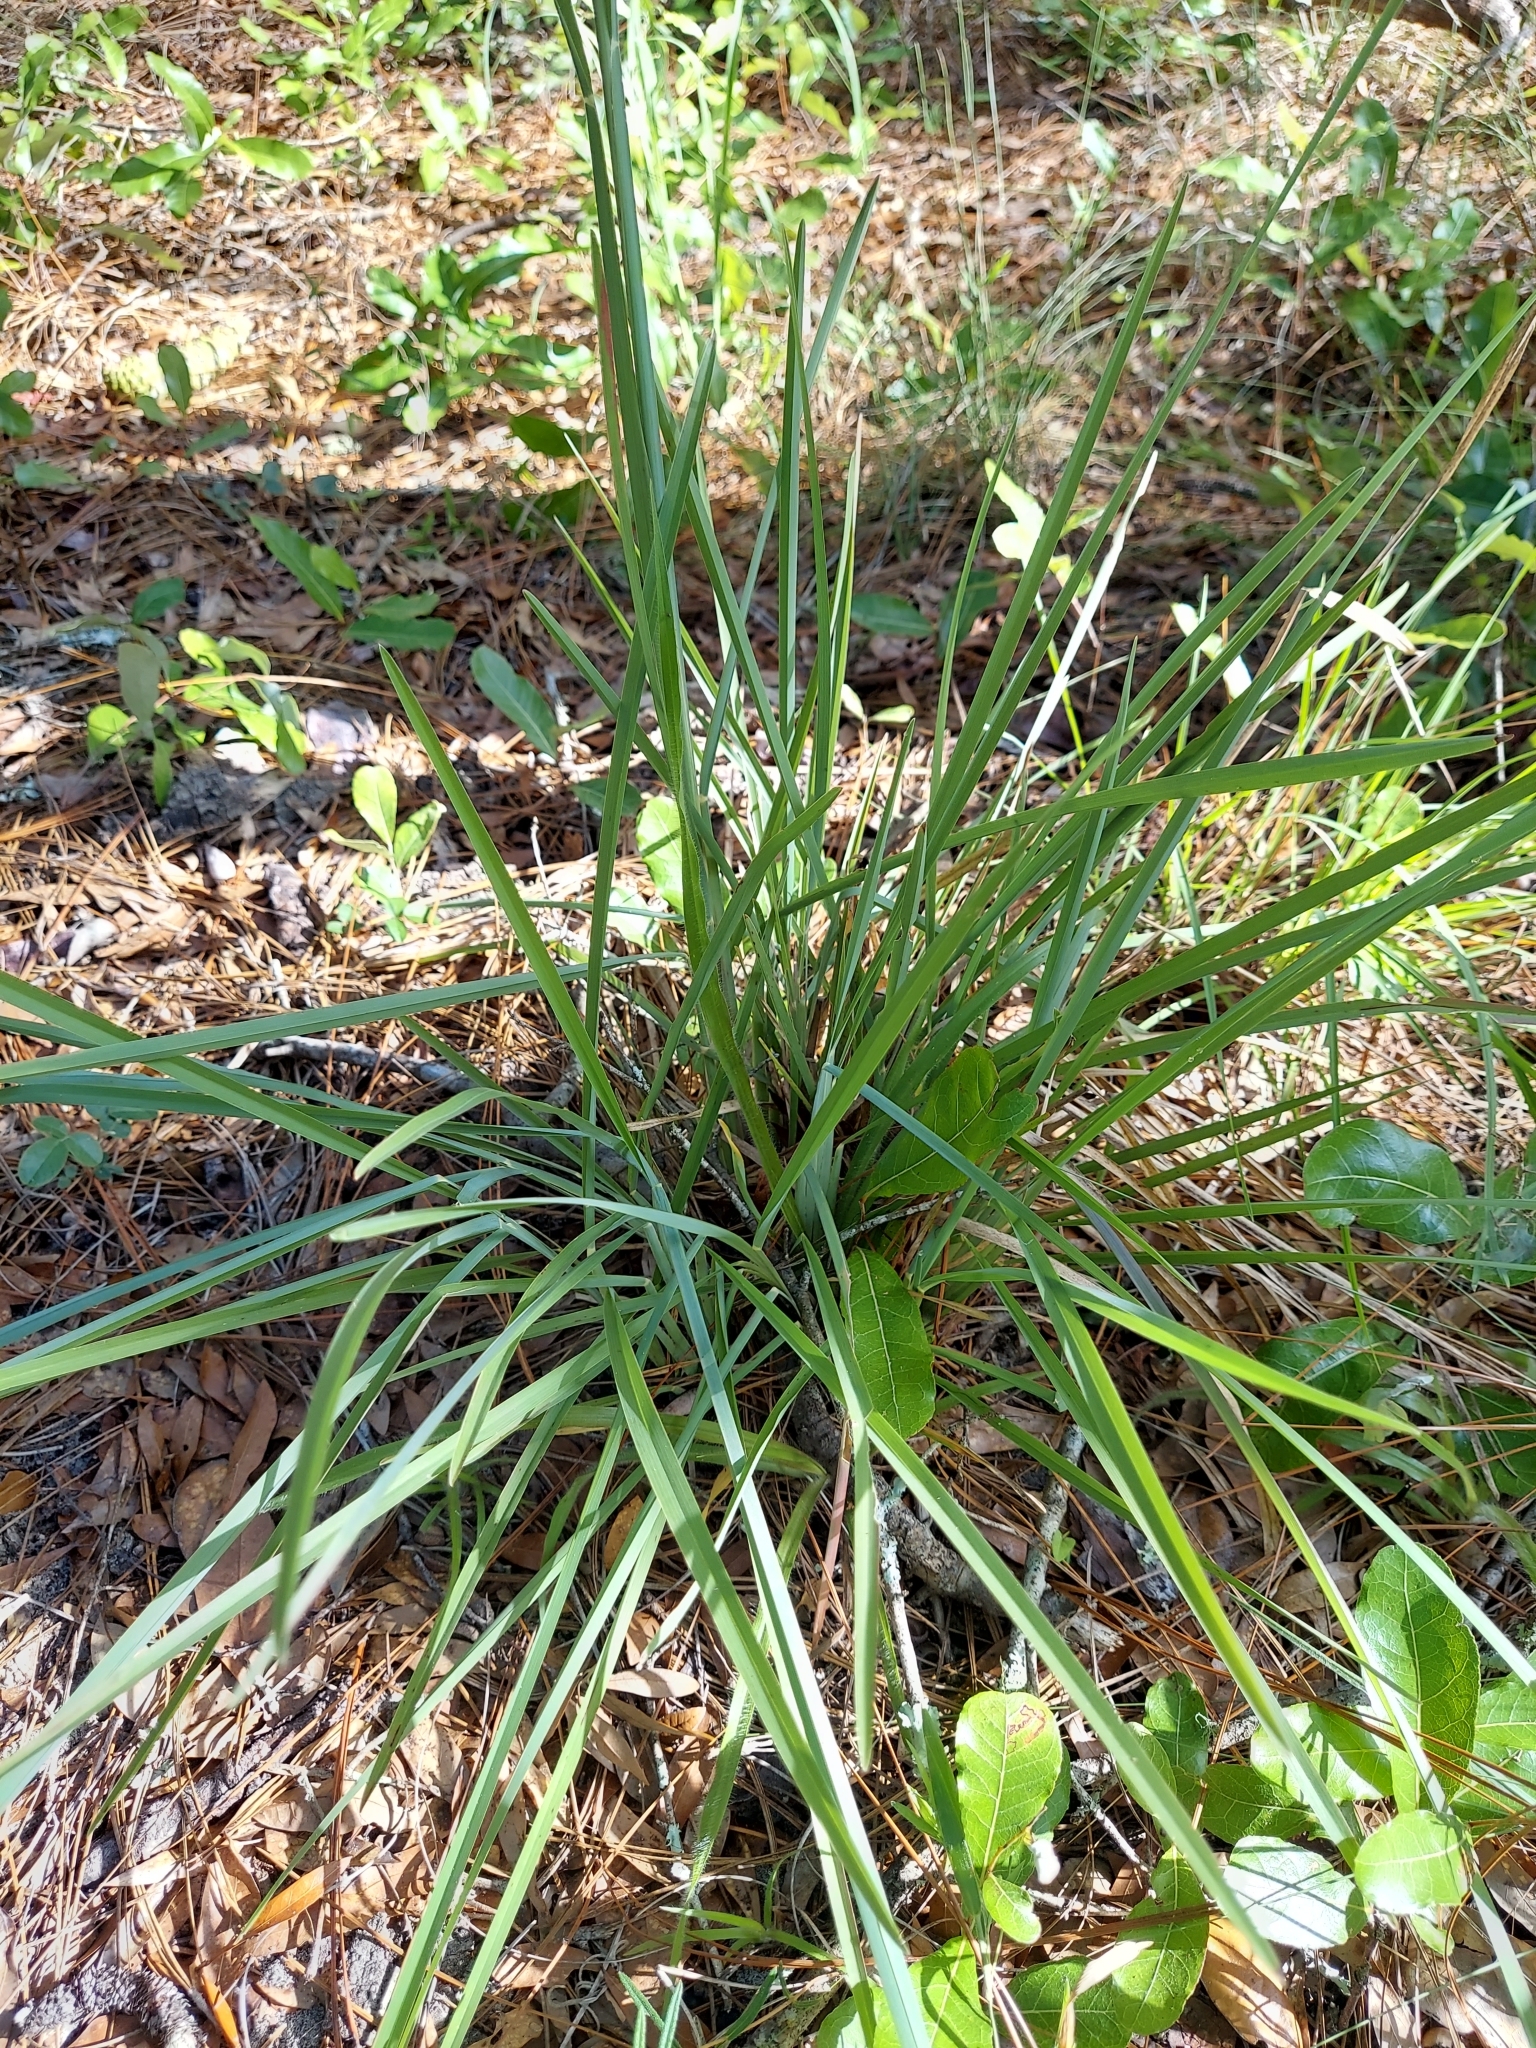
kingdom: Plantae
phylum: Tracheophyta
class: Liliopsida
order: Poales
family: Poaceae
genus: Eustachys
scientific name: Eustachys petraea
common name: Pinewoods fingergrass
